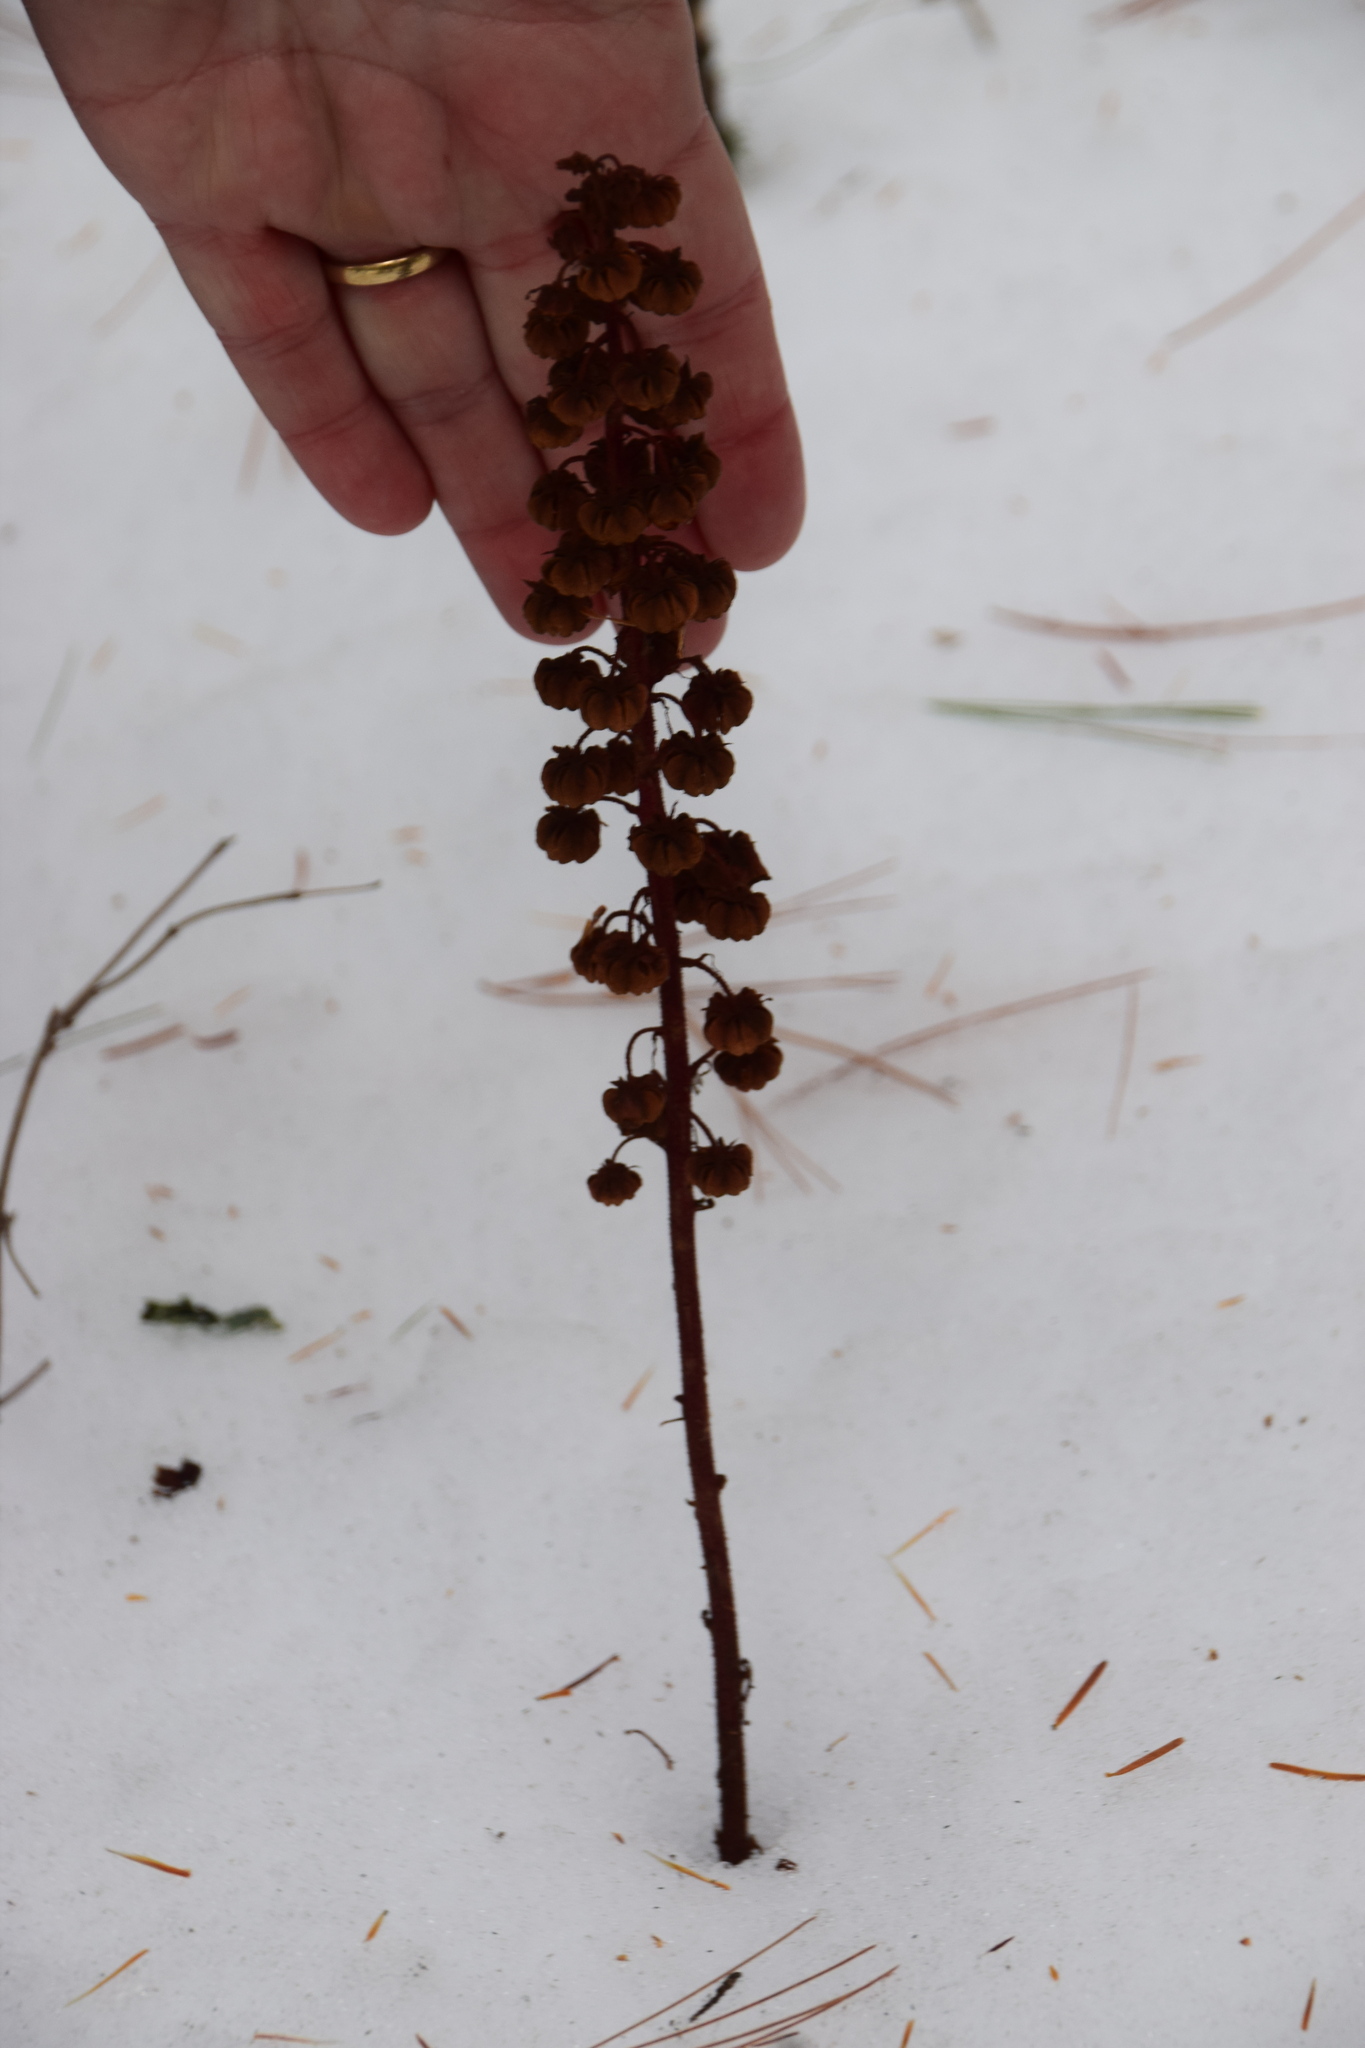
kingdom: Plantae
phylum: Tracheophyta
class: Magnoliopsida
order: Ericales
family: Ericaceae
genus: Pterospora
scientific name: Pterospora andromedea
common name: Giant bird's-nest
